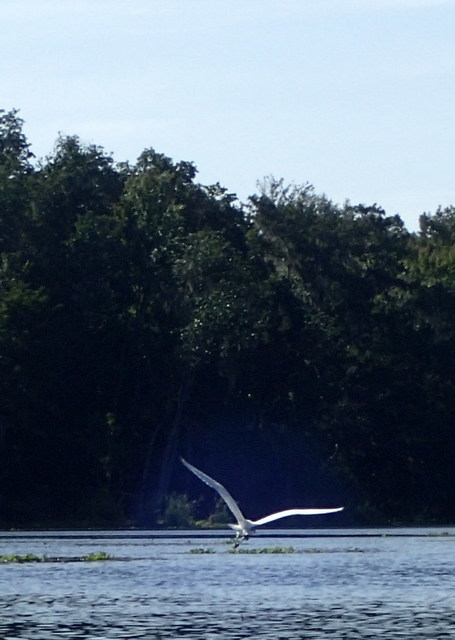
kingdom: Animalia
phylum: Chordata
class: Aves
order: Pelecaniformes
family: Ardeidae
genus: Ardea
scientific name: Ardea alba
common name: Great egret
